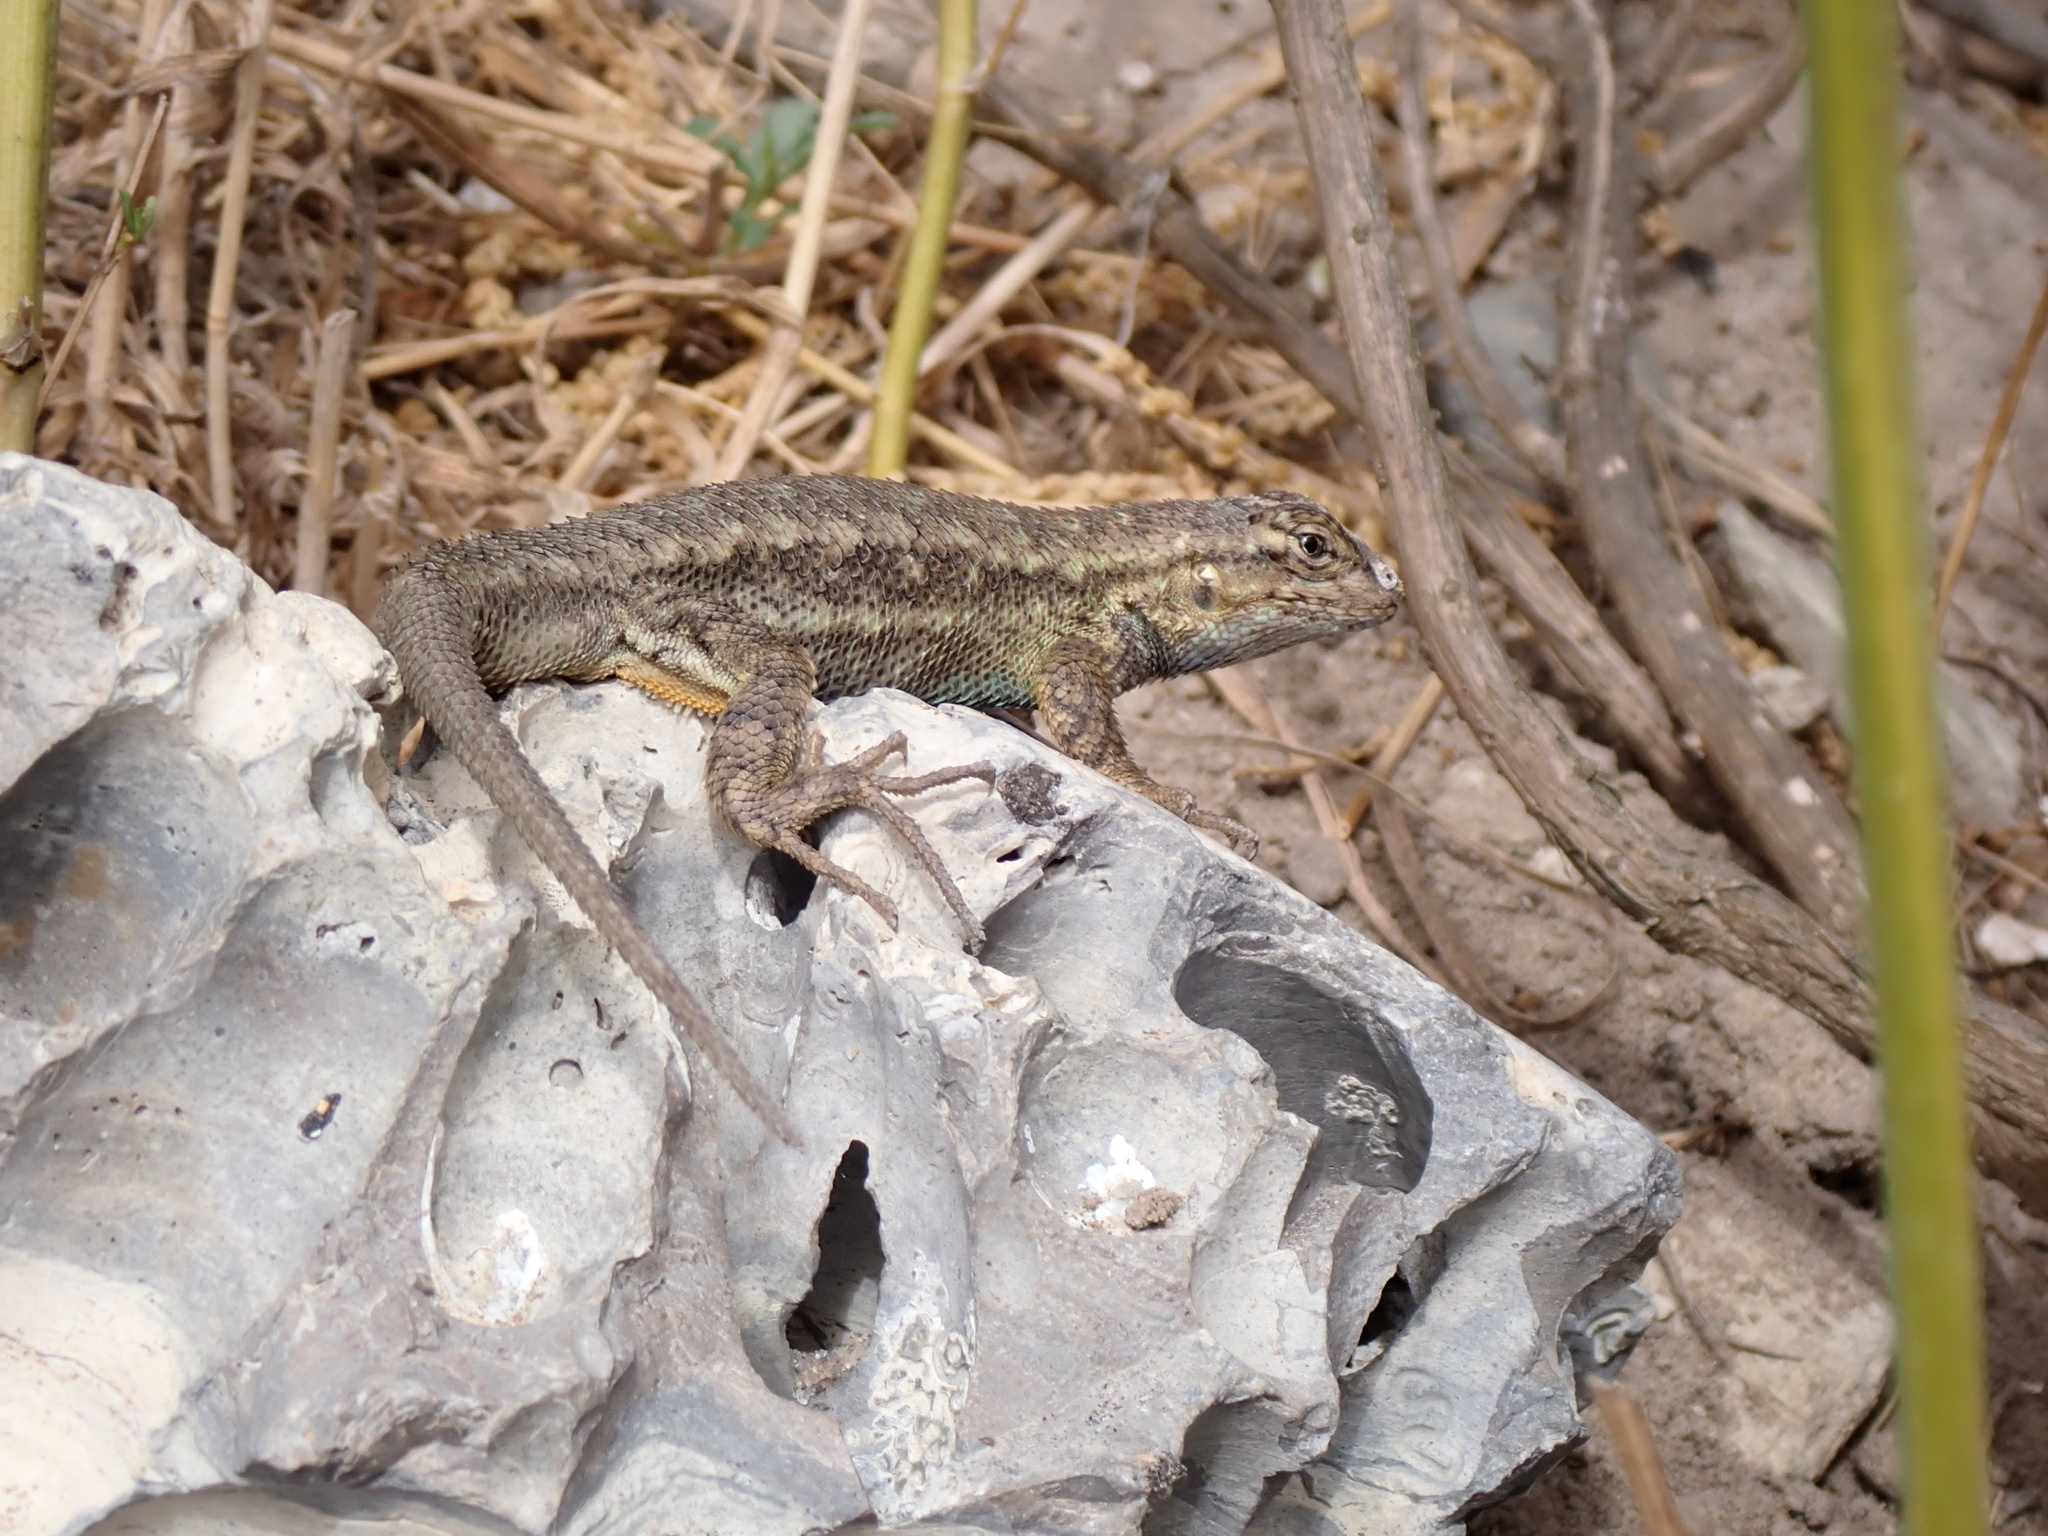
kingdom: Animalia
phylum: Chordata
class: Squamata
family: Phrynosomatidae
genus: Sceloporus
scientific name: Sceloporus occidentalis
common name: Western fence lizard
